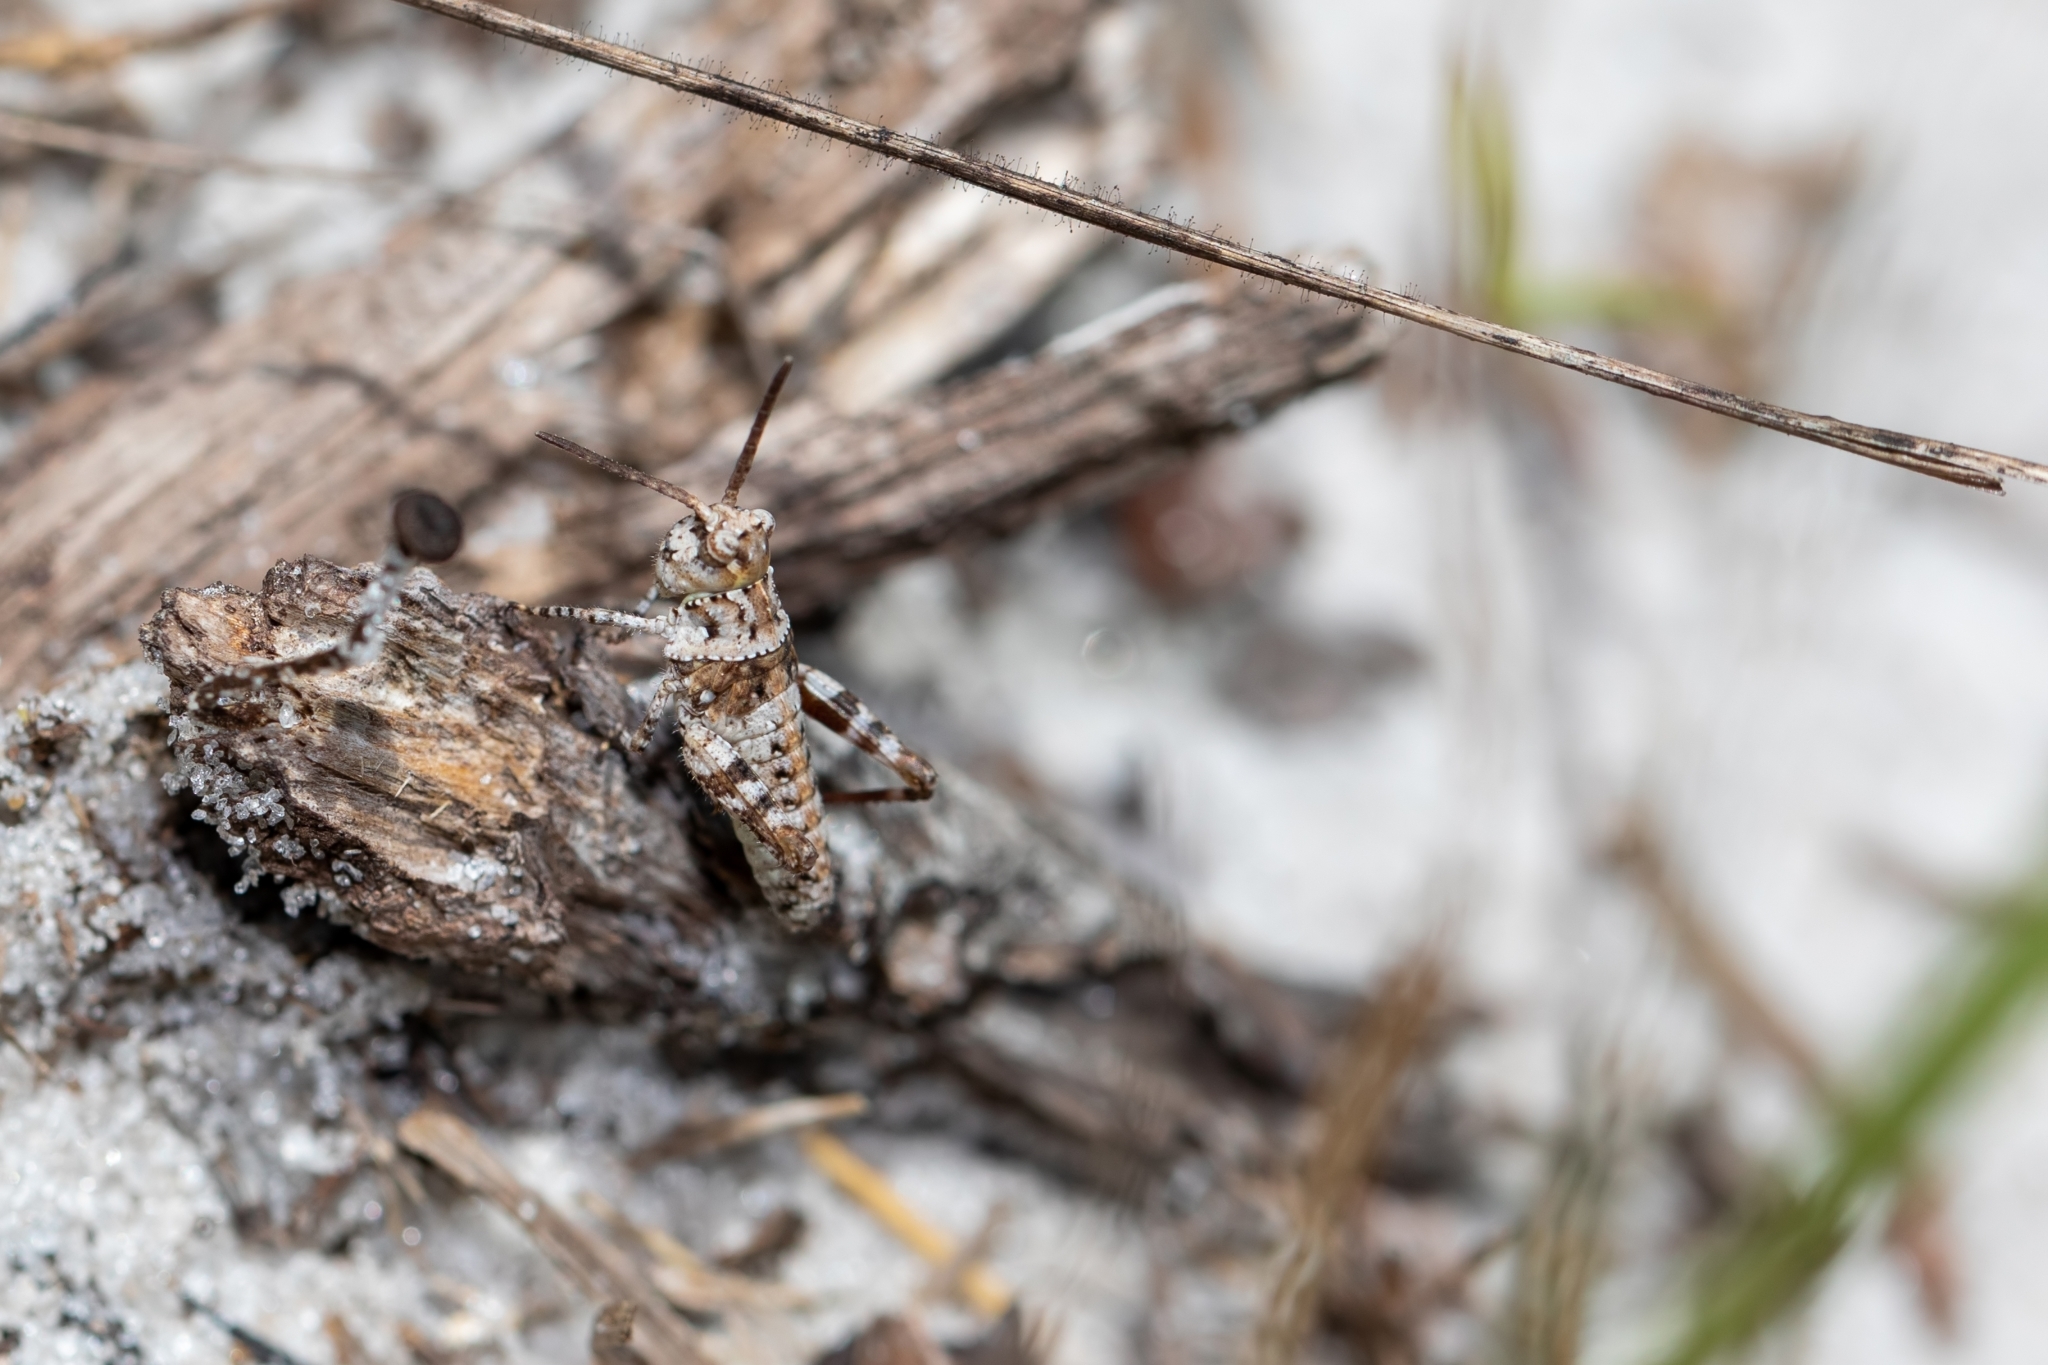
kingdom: Animalia
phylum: Arthropoda
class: Insecta
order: Orthoptera
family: Acrididae
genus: Psinidia
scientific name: Psinidia fenestralis
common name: Long-horned locust
